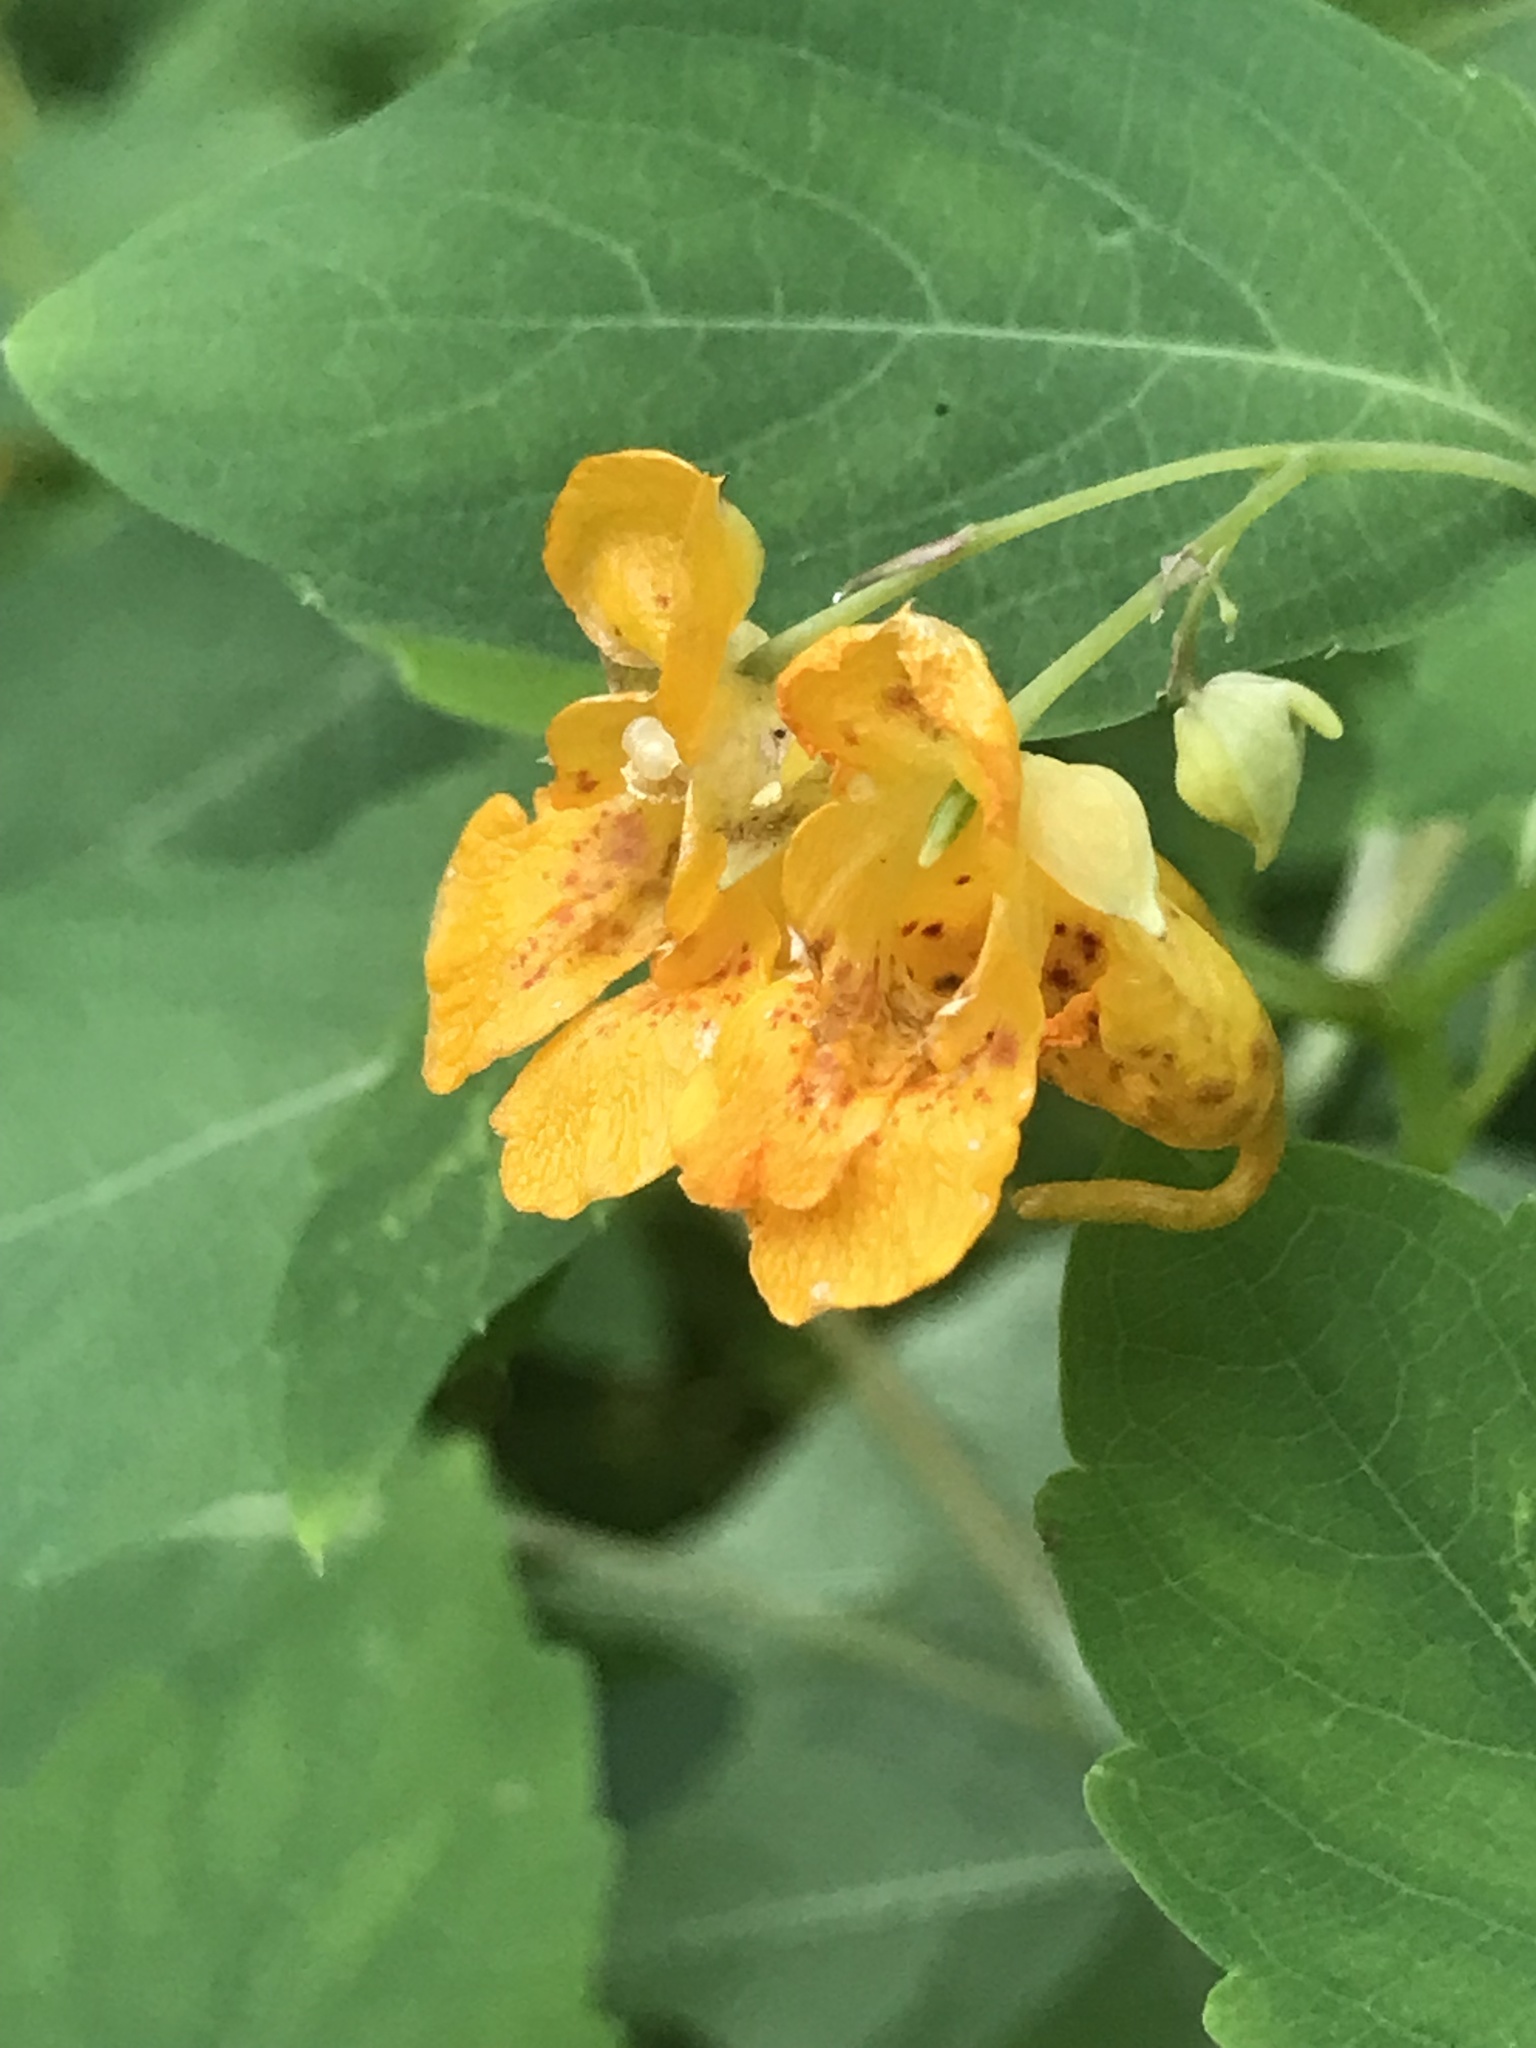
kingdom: Plantae
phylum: Tracheophyta
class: Magnoliopsida
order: Ericales
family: Balsaminaceae
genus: Impatiens
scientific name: Impatiens capensis
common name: Orange balsam
